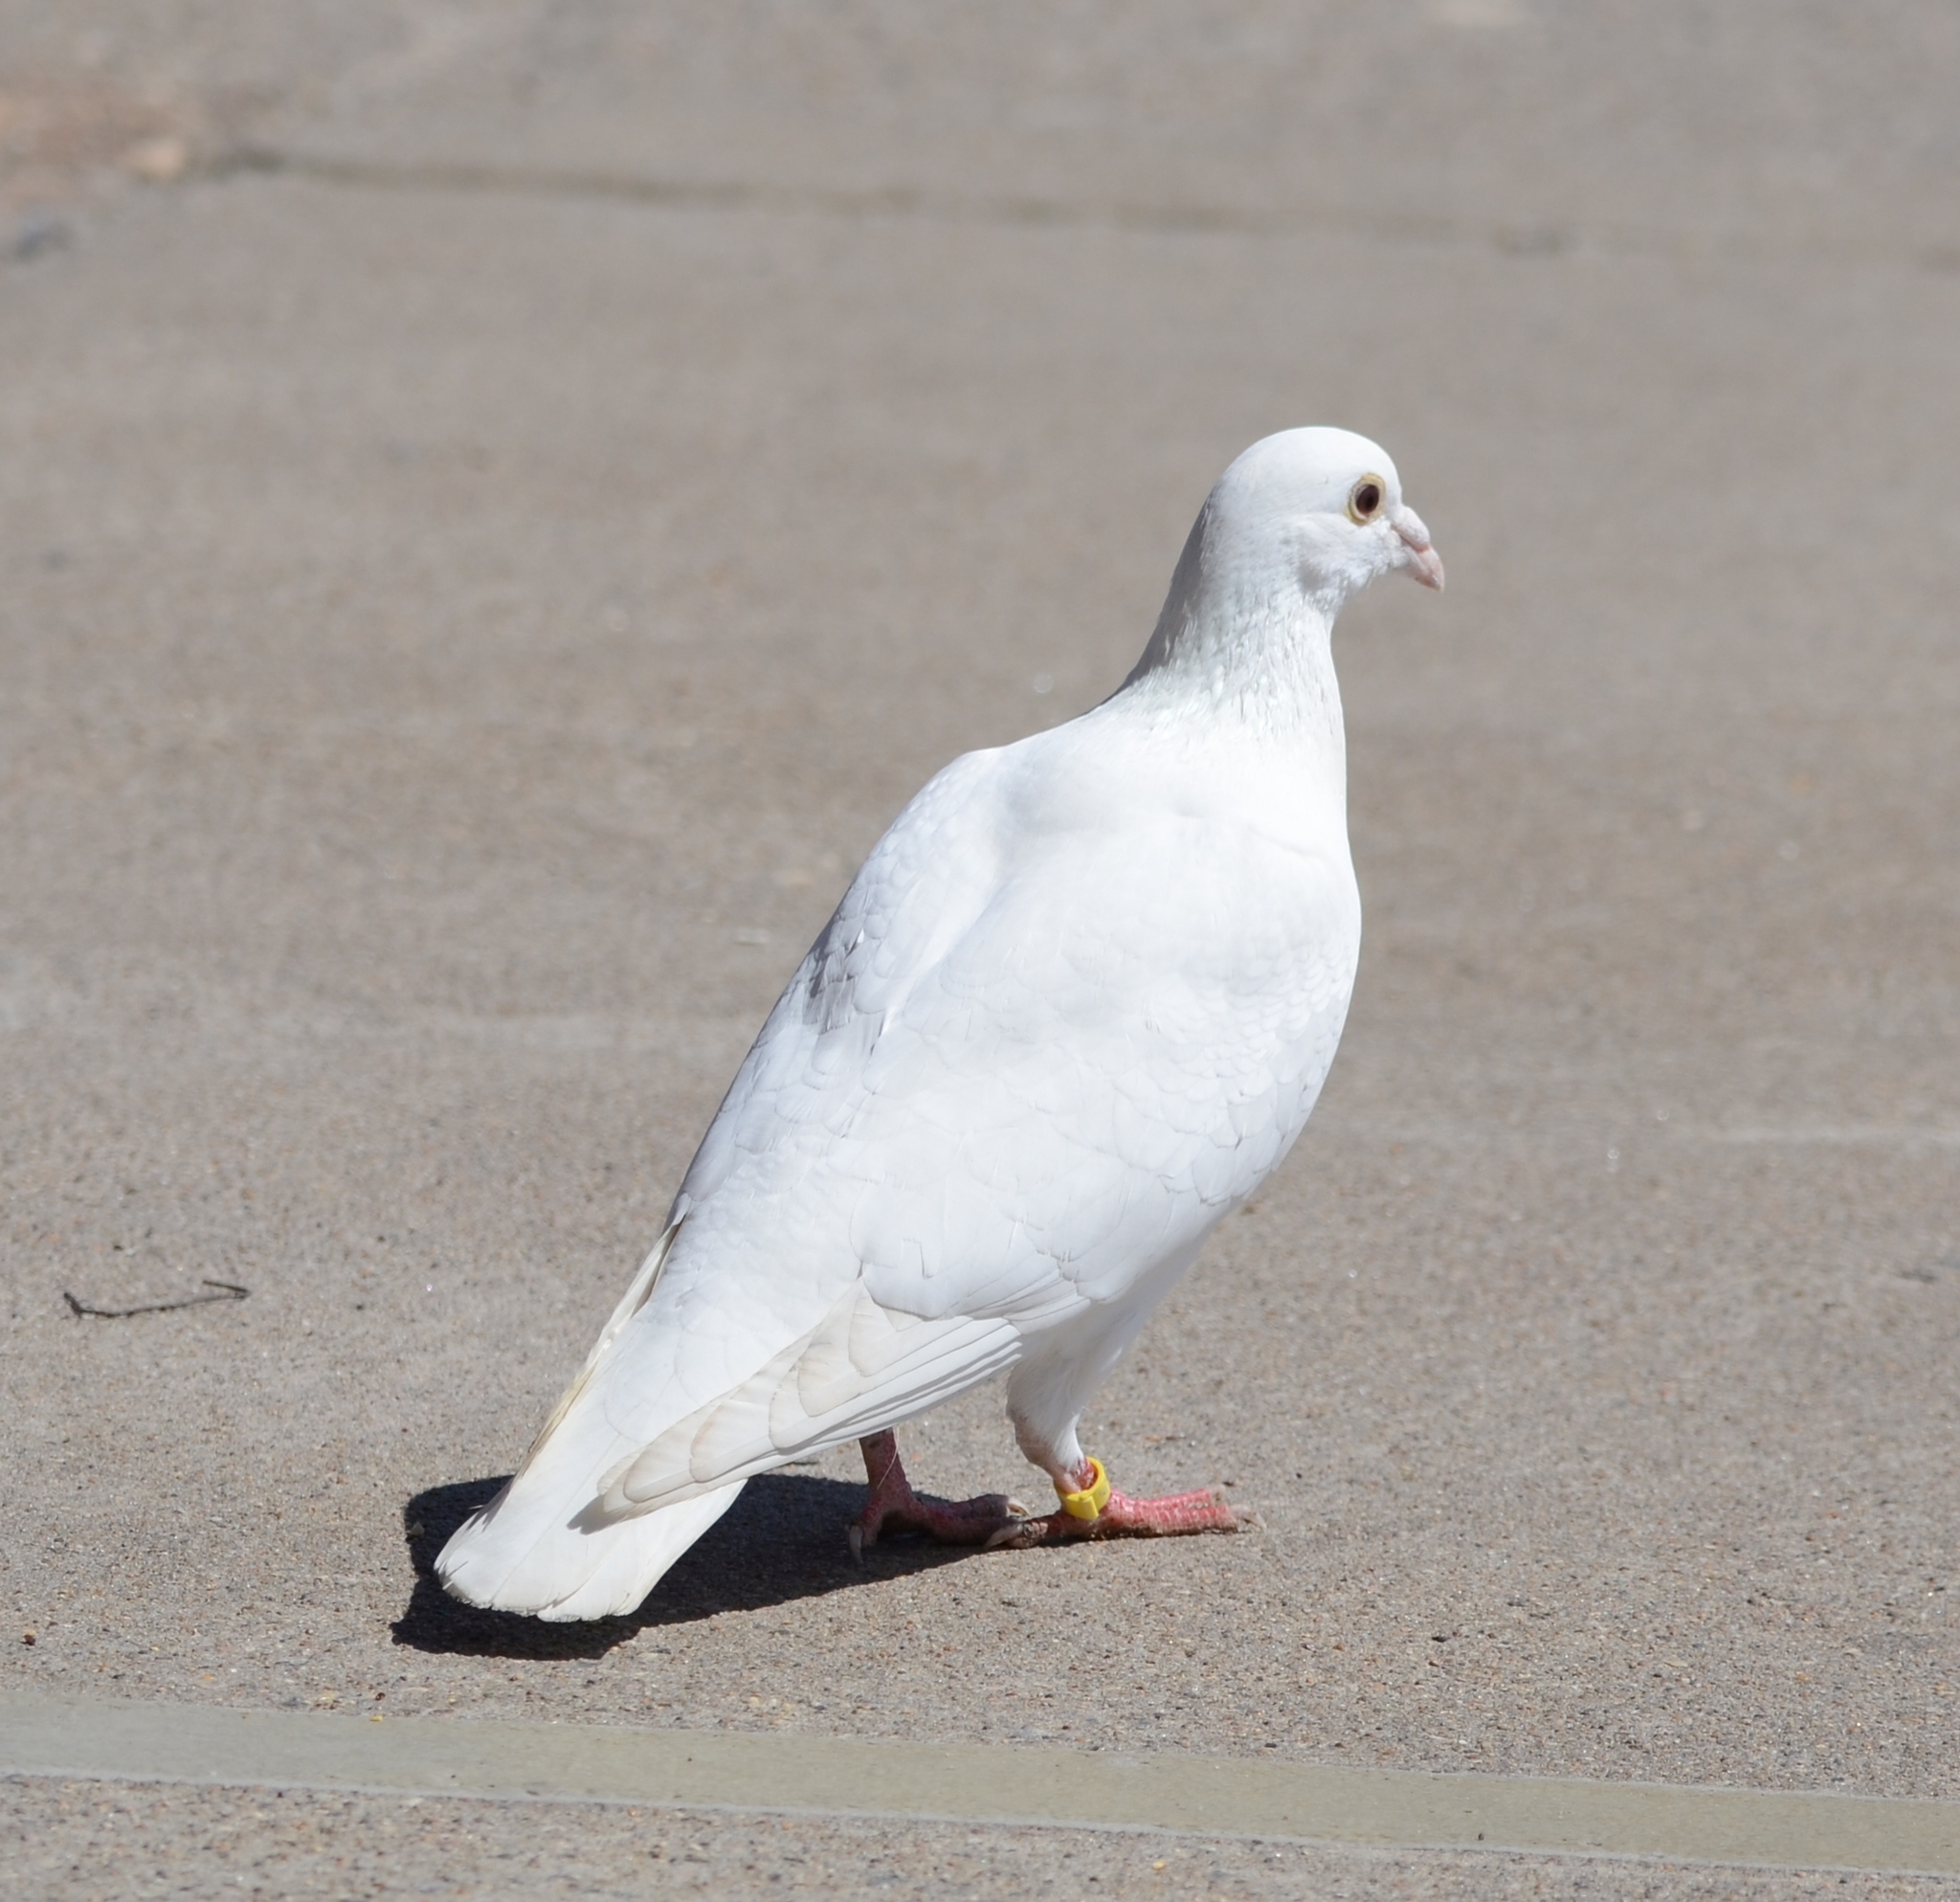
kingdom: Animalia
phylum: Chordata
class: Aves
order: Columbiformes
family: Columbidae
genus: Columba
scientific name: Columba livia
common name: Rock pigeon
